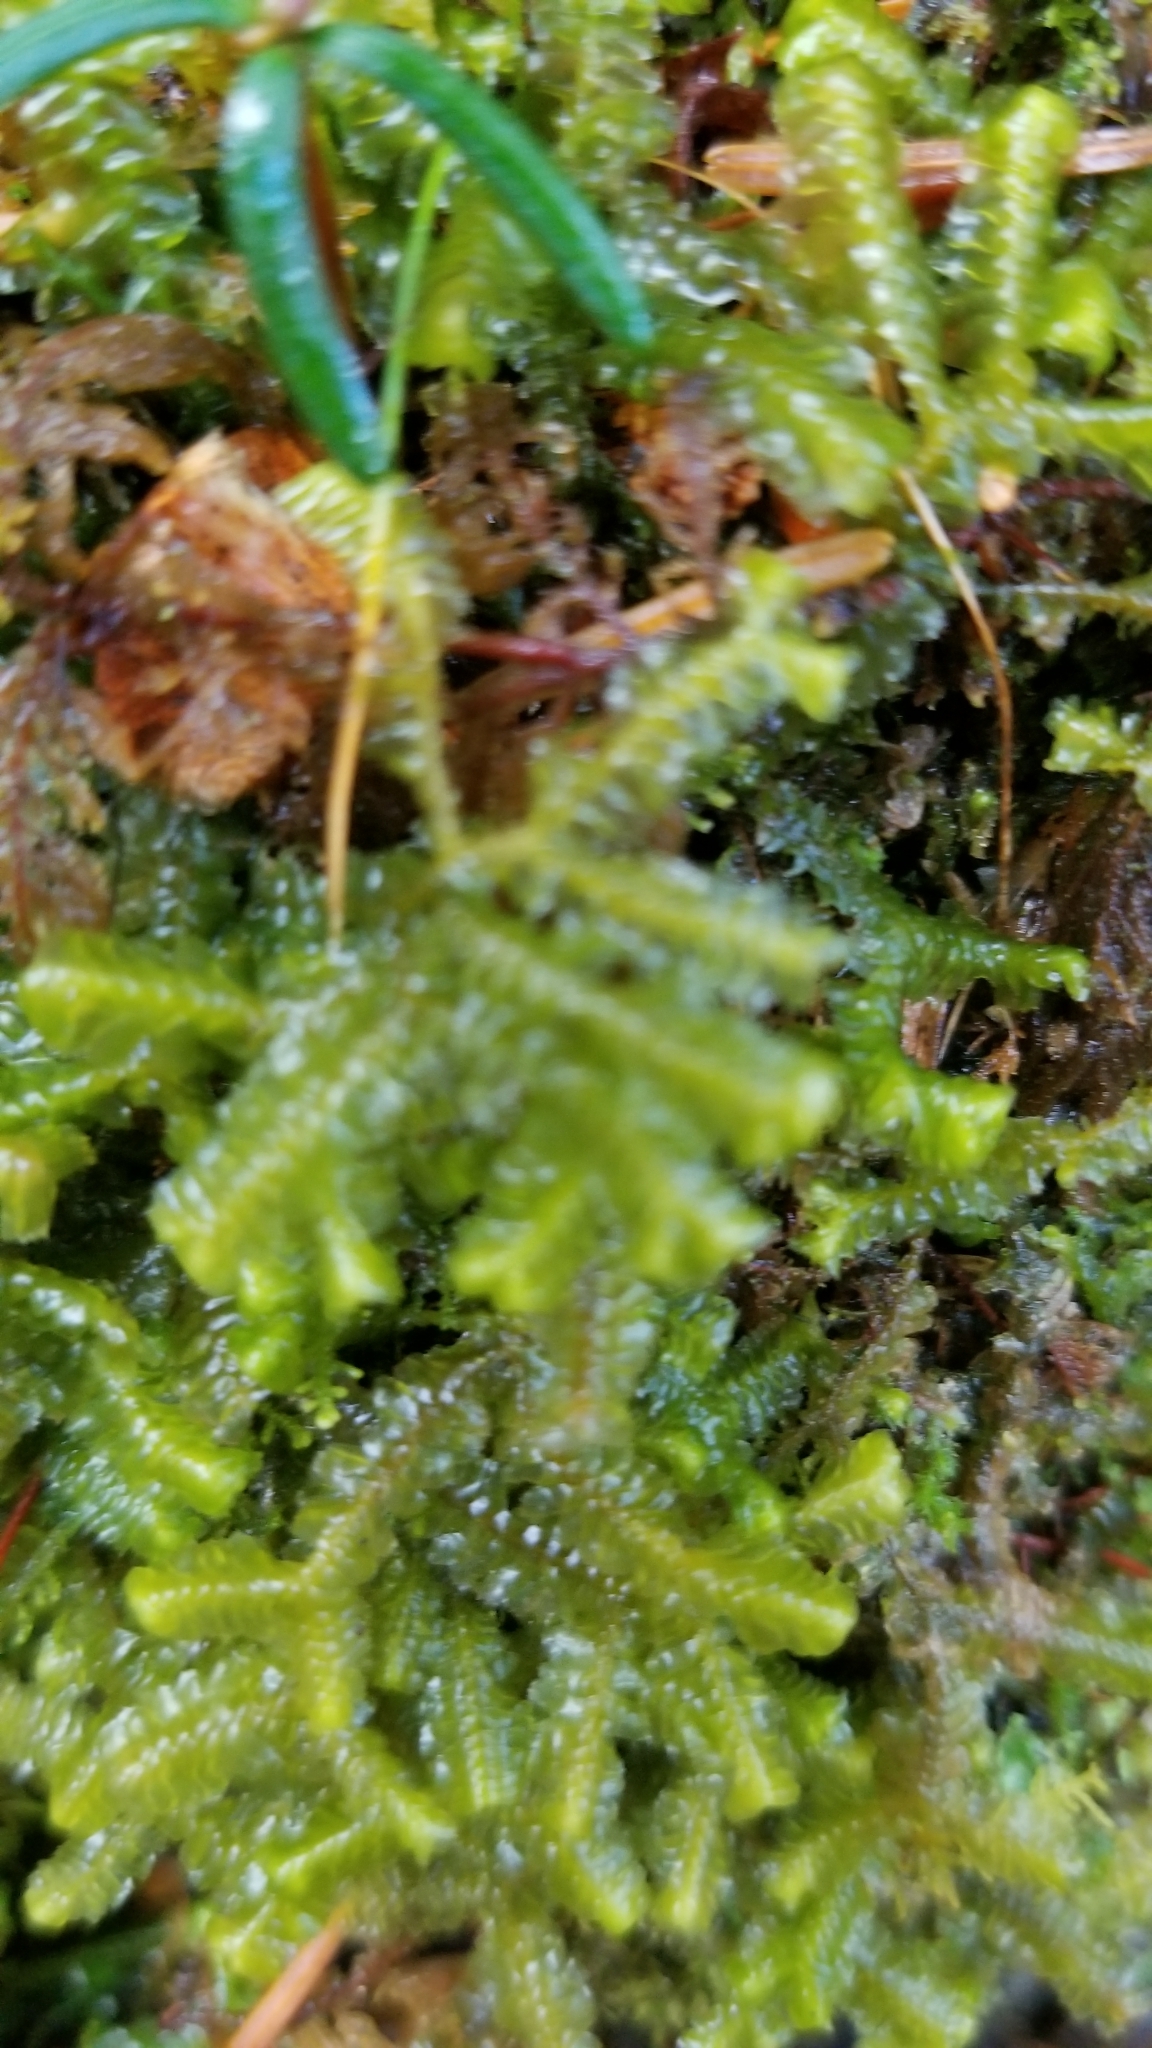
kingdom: Plantae
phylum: Marchantiophyta
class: Jungermanniopsida
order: Jungermanniales
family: Lepidoziaceae
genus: Bazzania
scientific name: Bazzania trilobata
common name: Three-lobed whipwort
